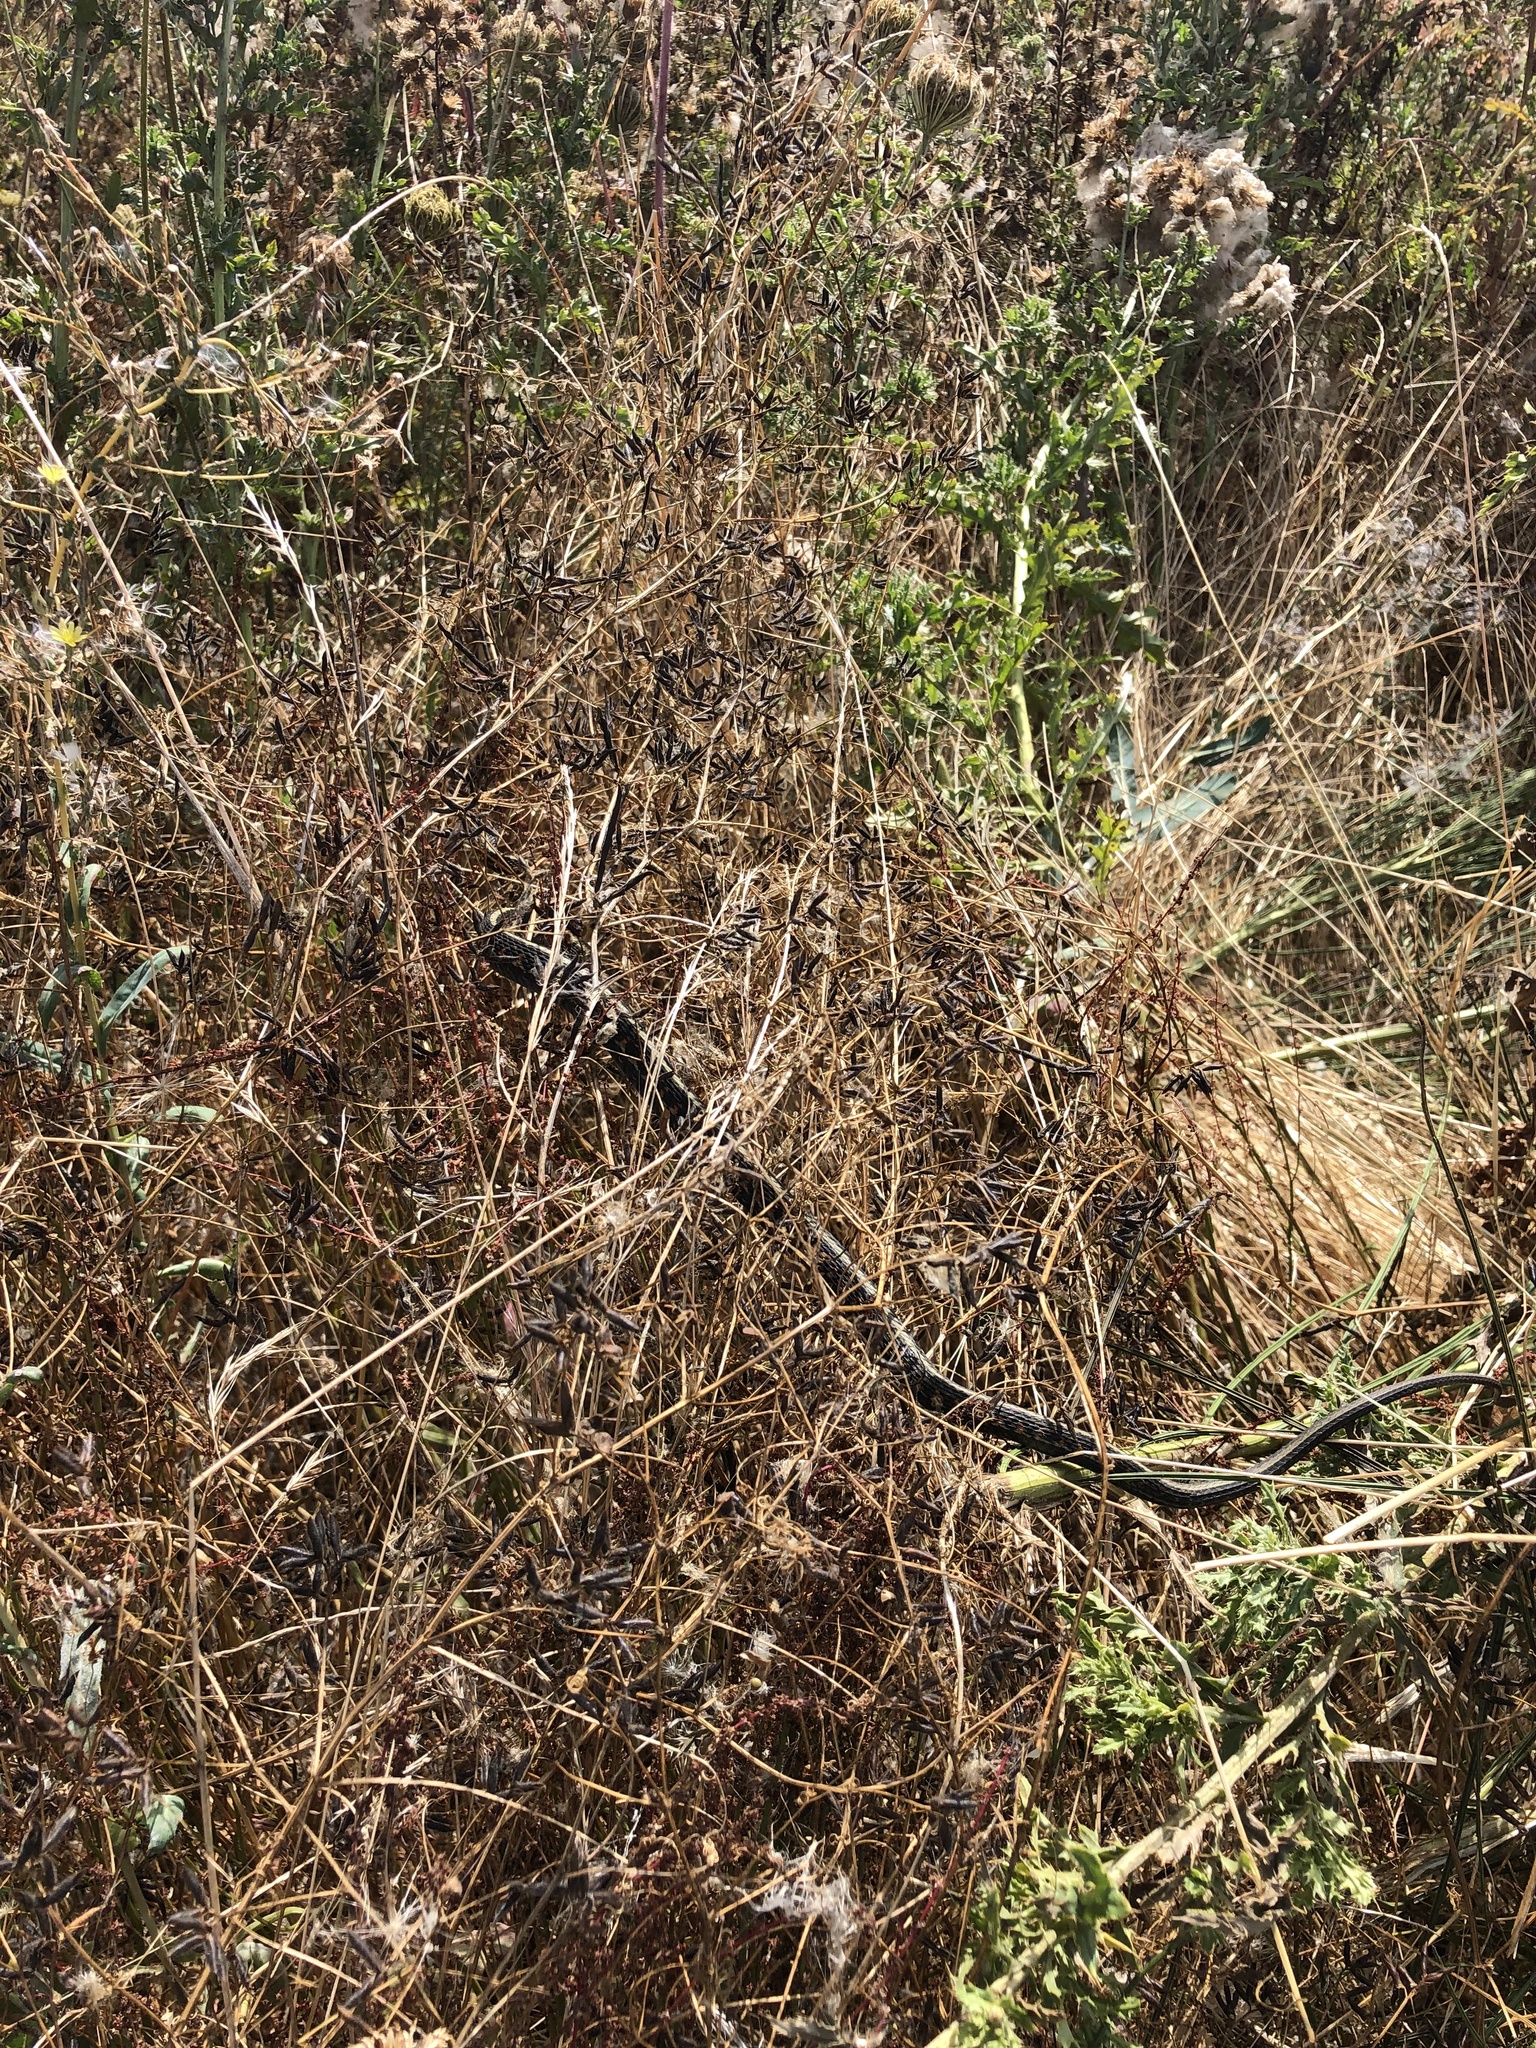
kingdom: Animalia
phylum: Chordata
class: Squamata
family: Colubridae
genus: Thamnophis
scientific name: Thamnophis sirtalis
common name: Common garter snake
